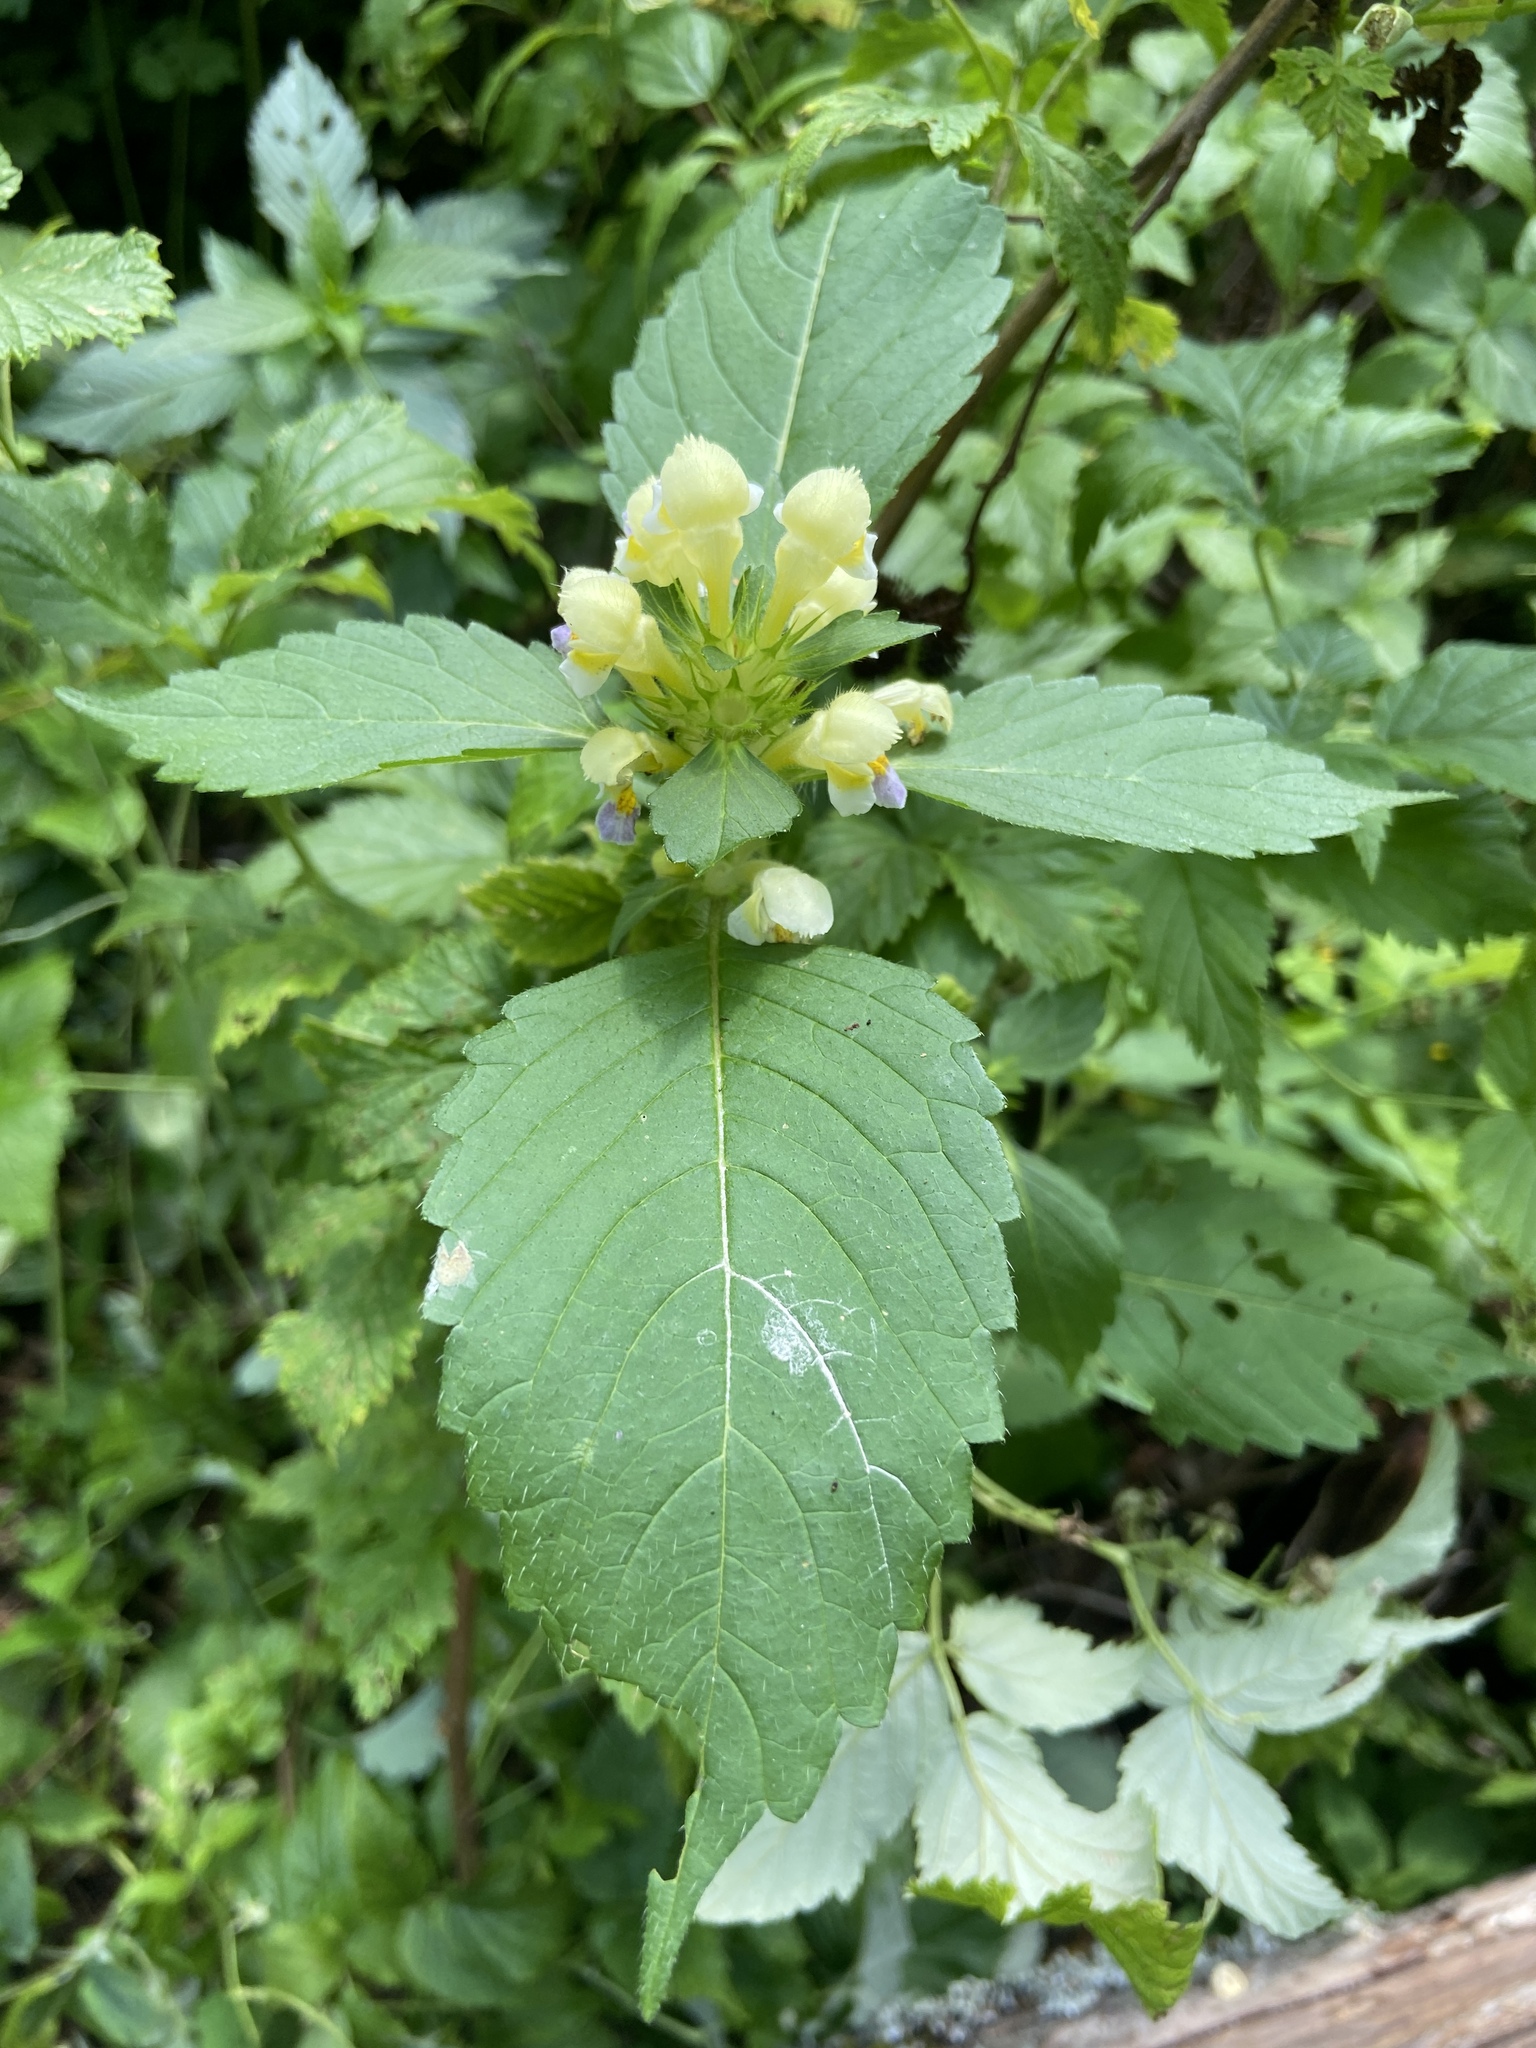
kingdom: Plantae
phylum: Tracheophyta
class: Magnoliopsida
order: Lamiales
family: Lamiaceae
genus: Galeopsis
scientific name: Galeopsis speciosa
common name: Large-flowered hemp-nettle
